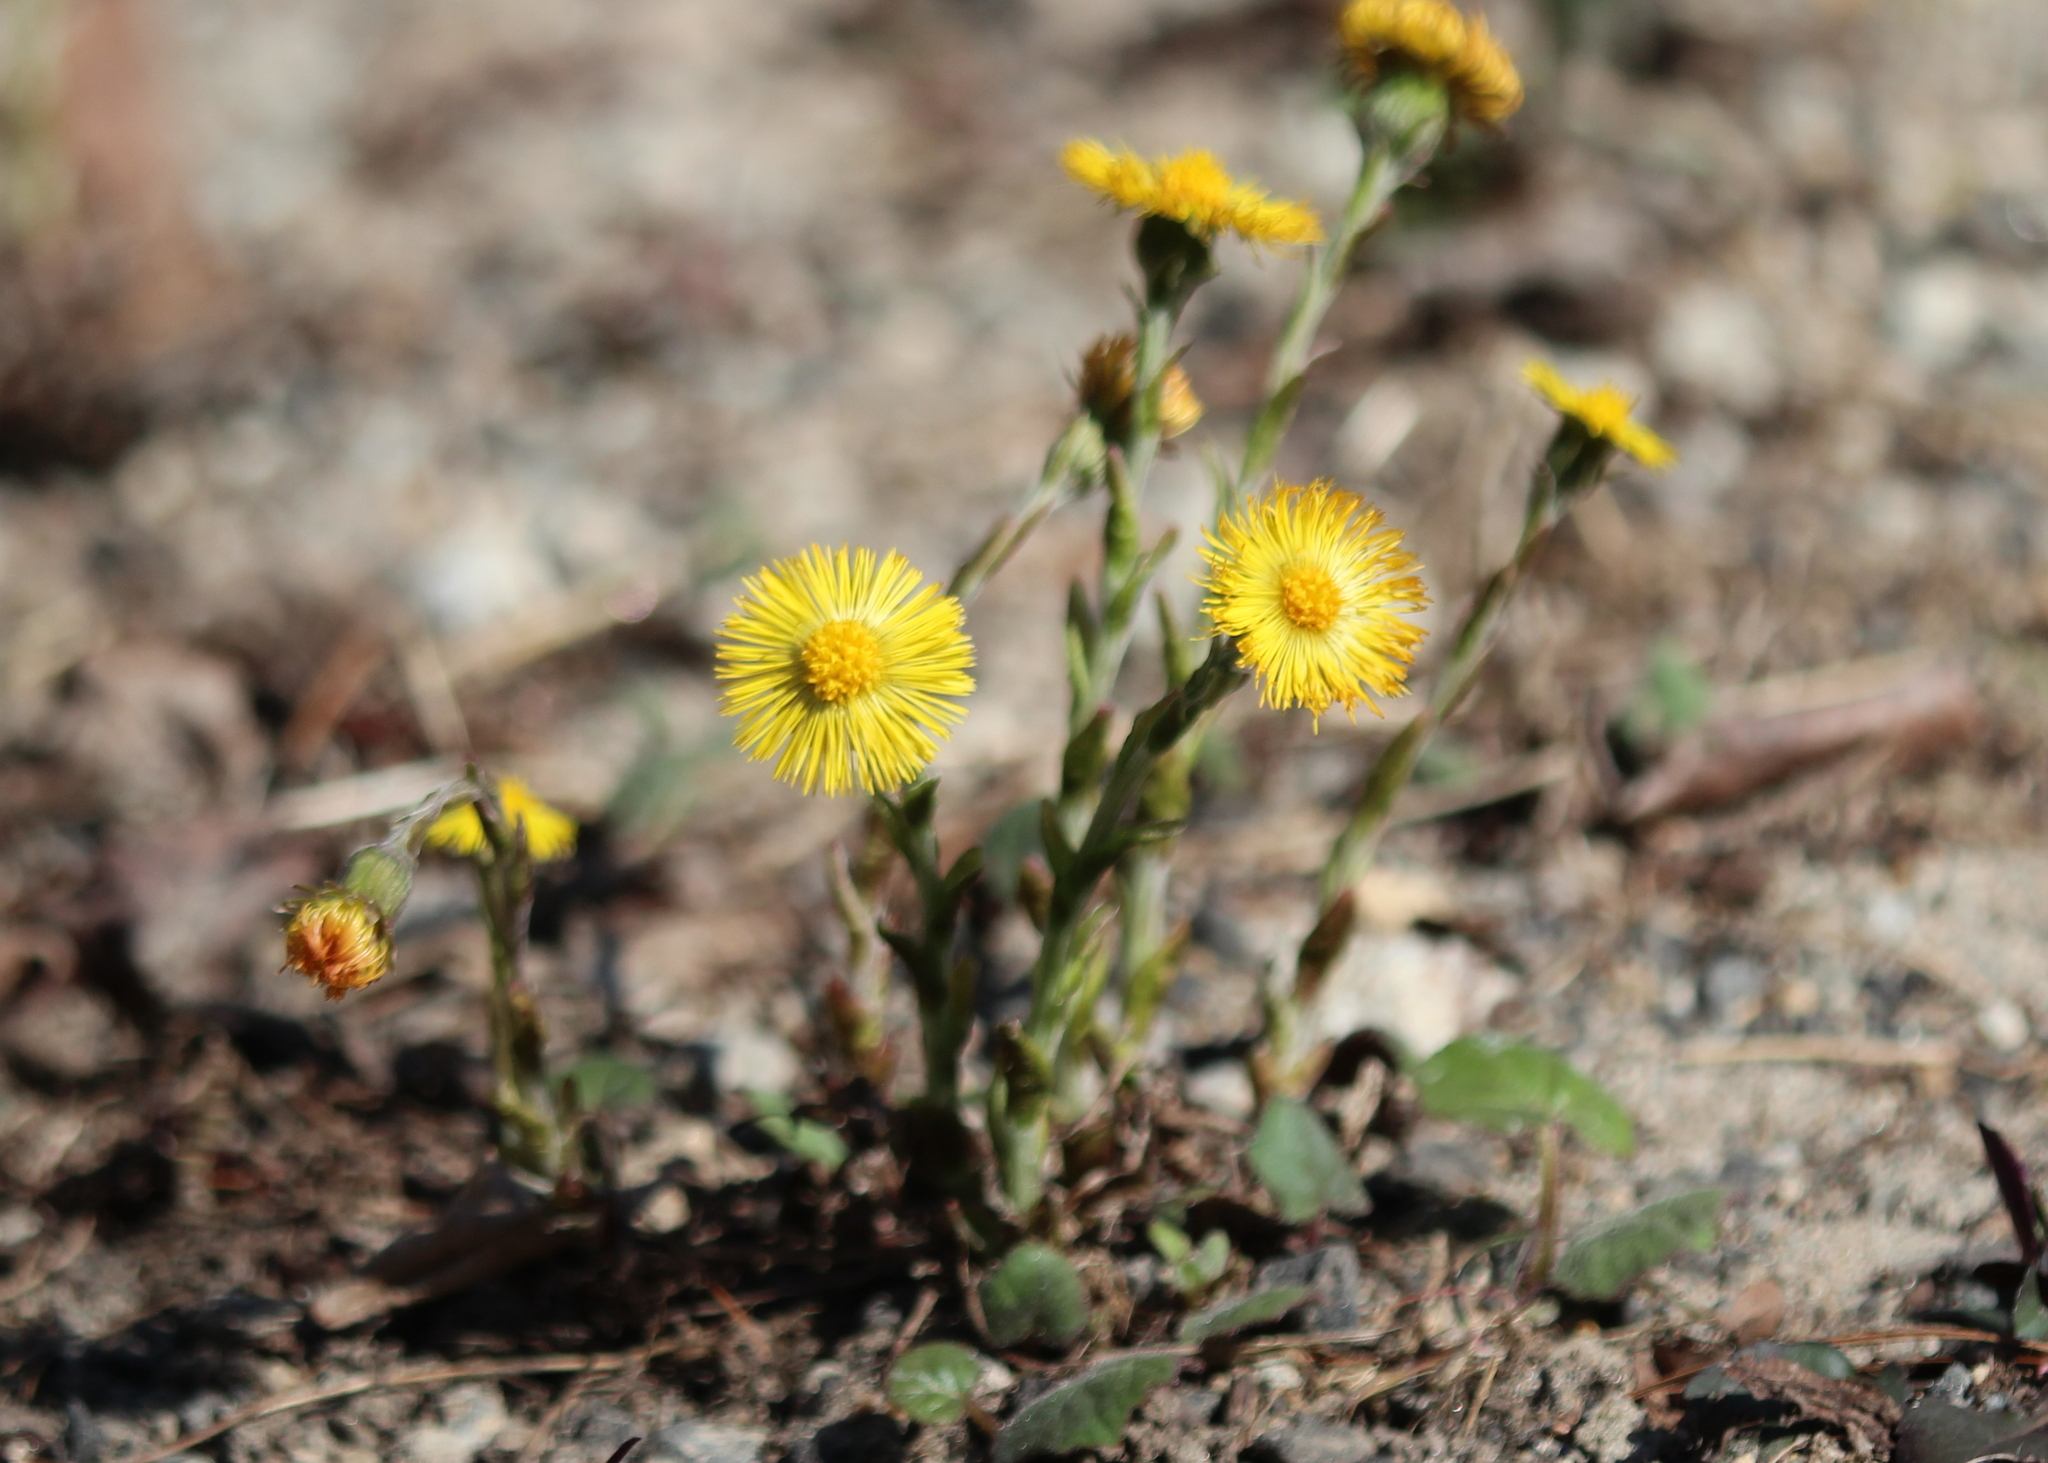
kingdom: Plantae
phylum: Tracheophyta
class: Magnoliopsida
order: Asterales
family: Asteraceae
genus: Tussilago
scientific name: Tussilago farfara
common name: Coltsfoot
